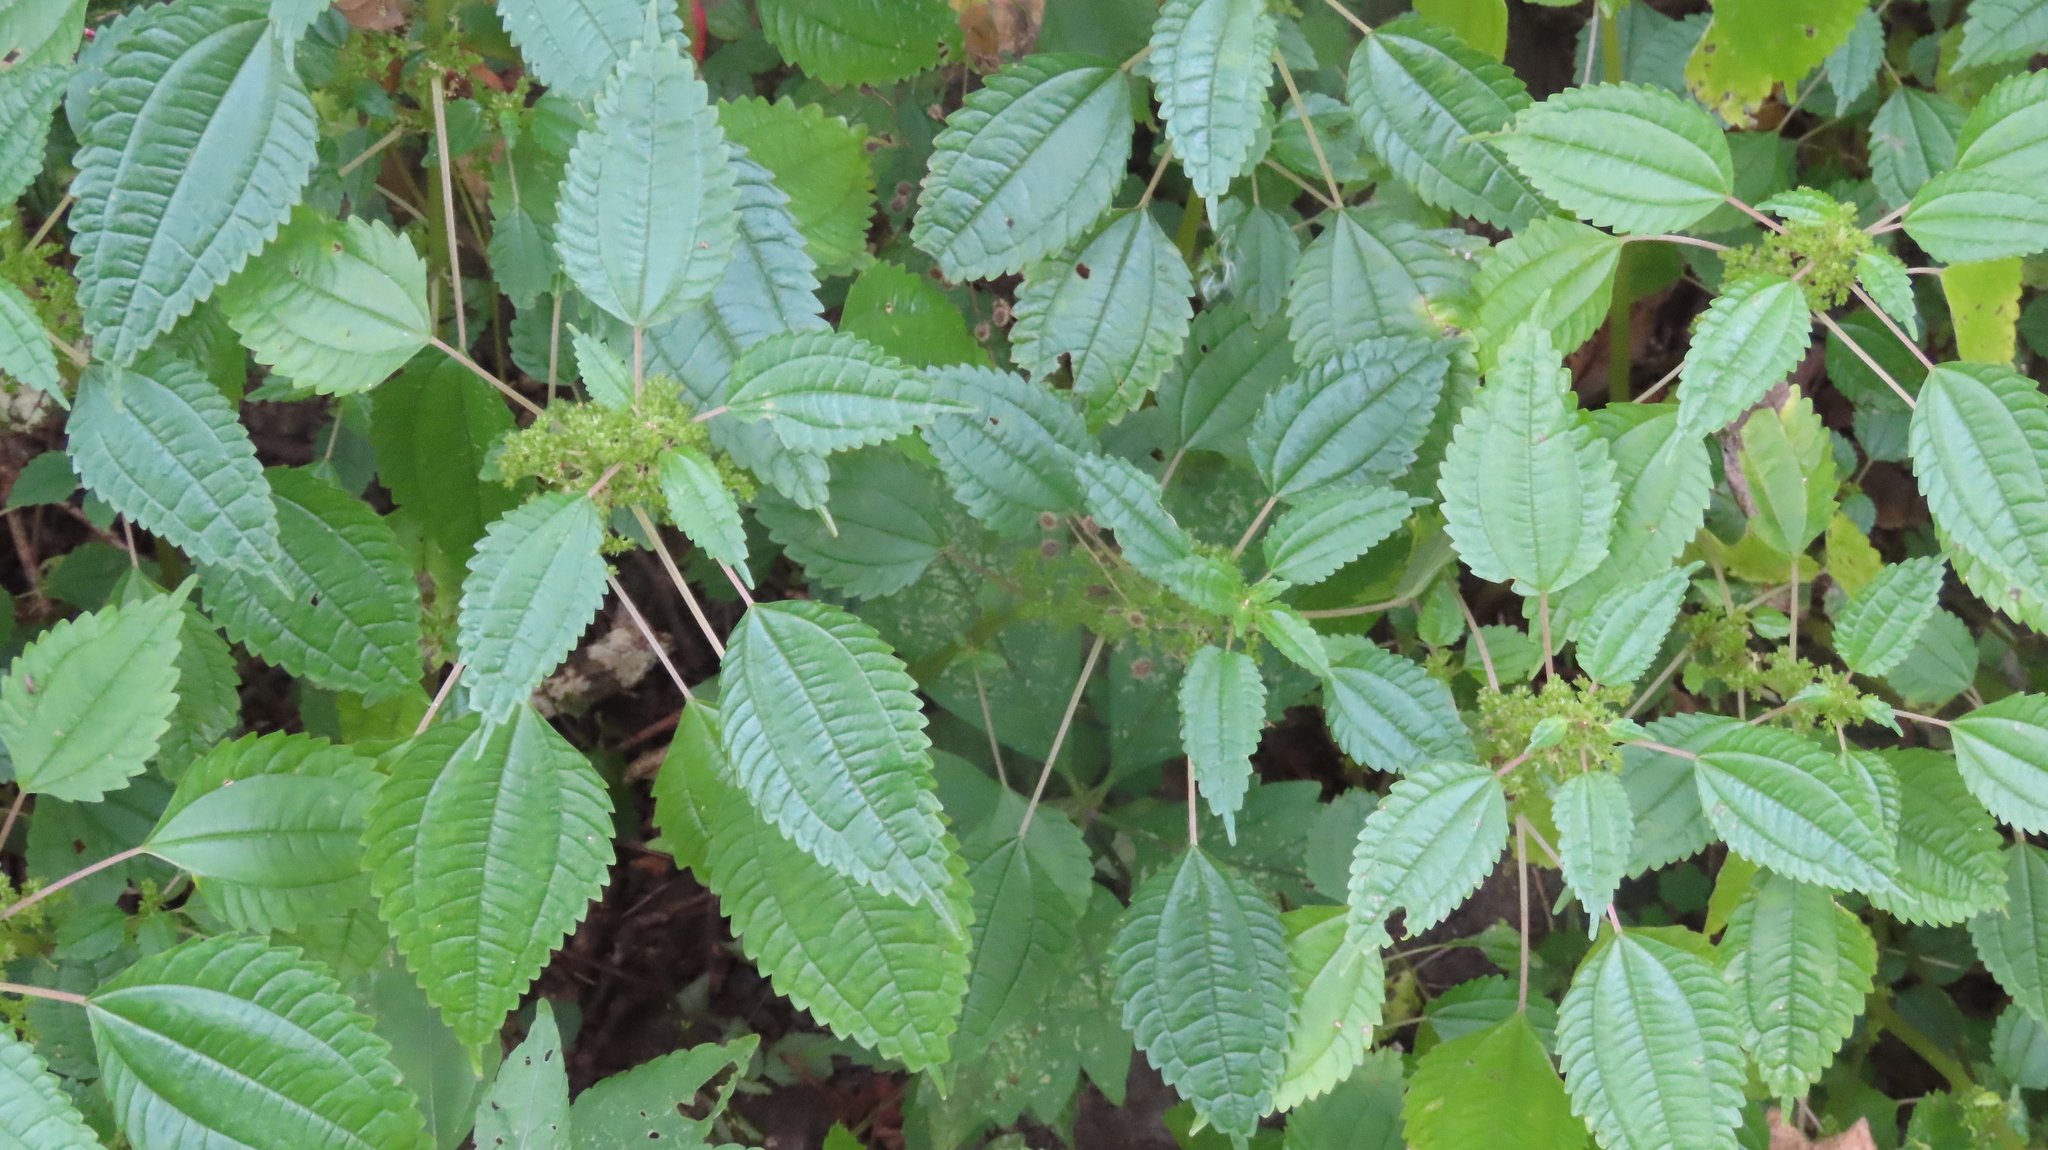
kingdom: Plantae
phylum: Tracheophyta
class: Magnoliopsida
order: Rosales
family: Urticaceae
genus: Pilea
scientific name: Pilea pumila
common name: Clearweed
